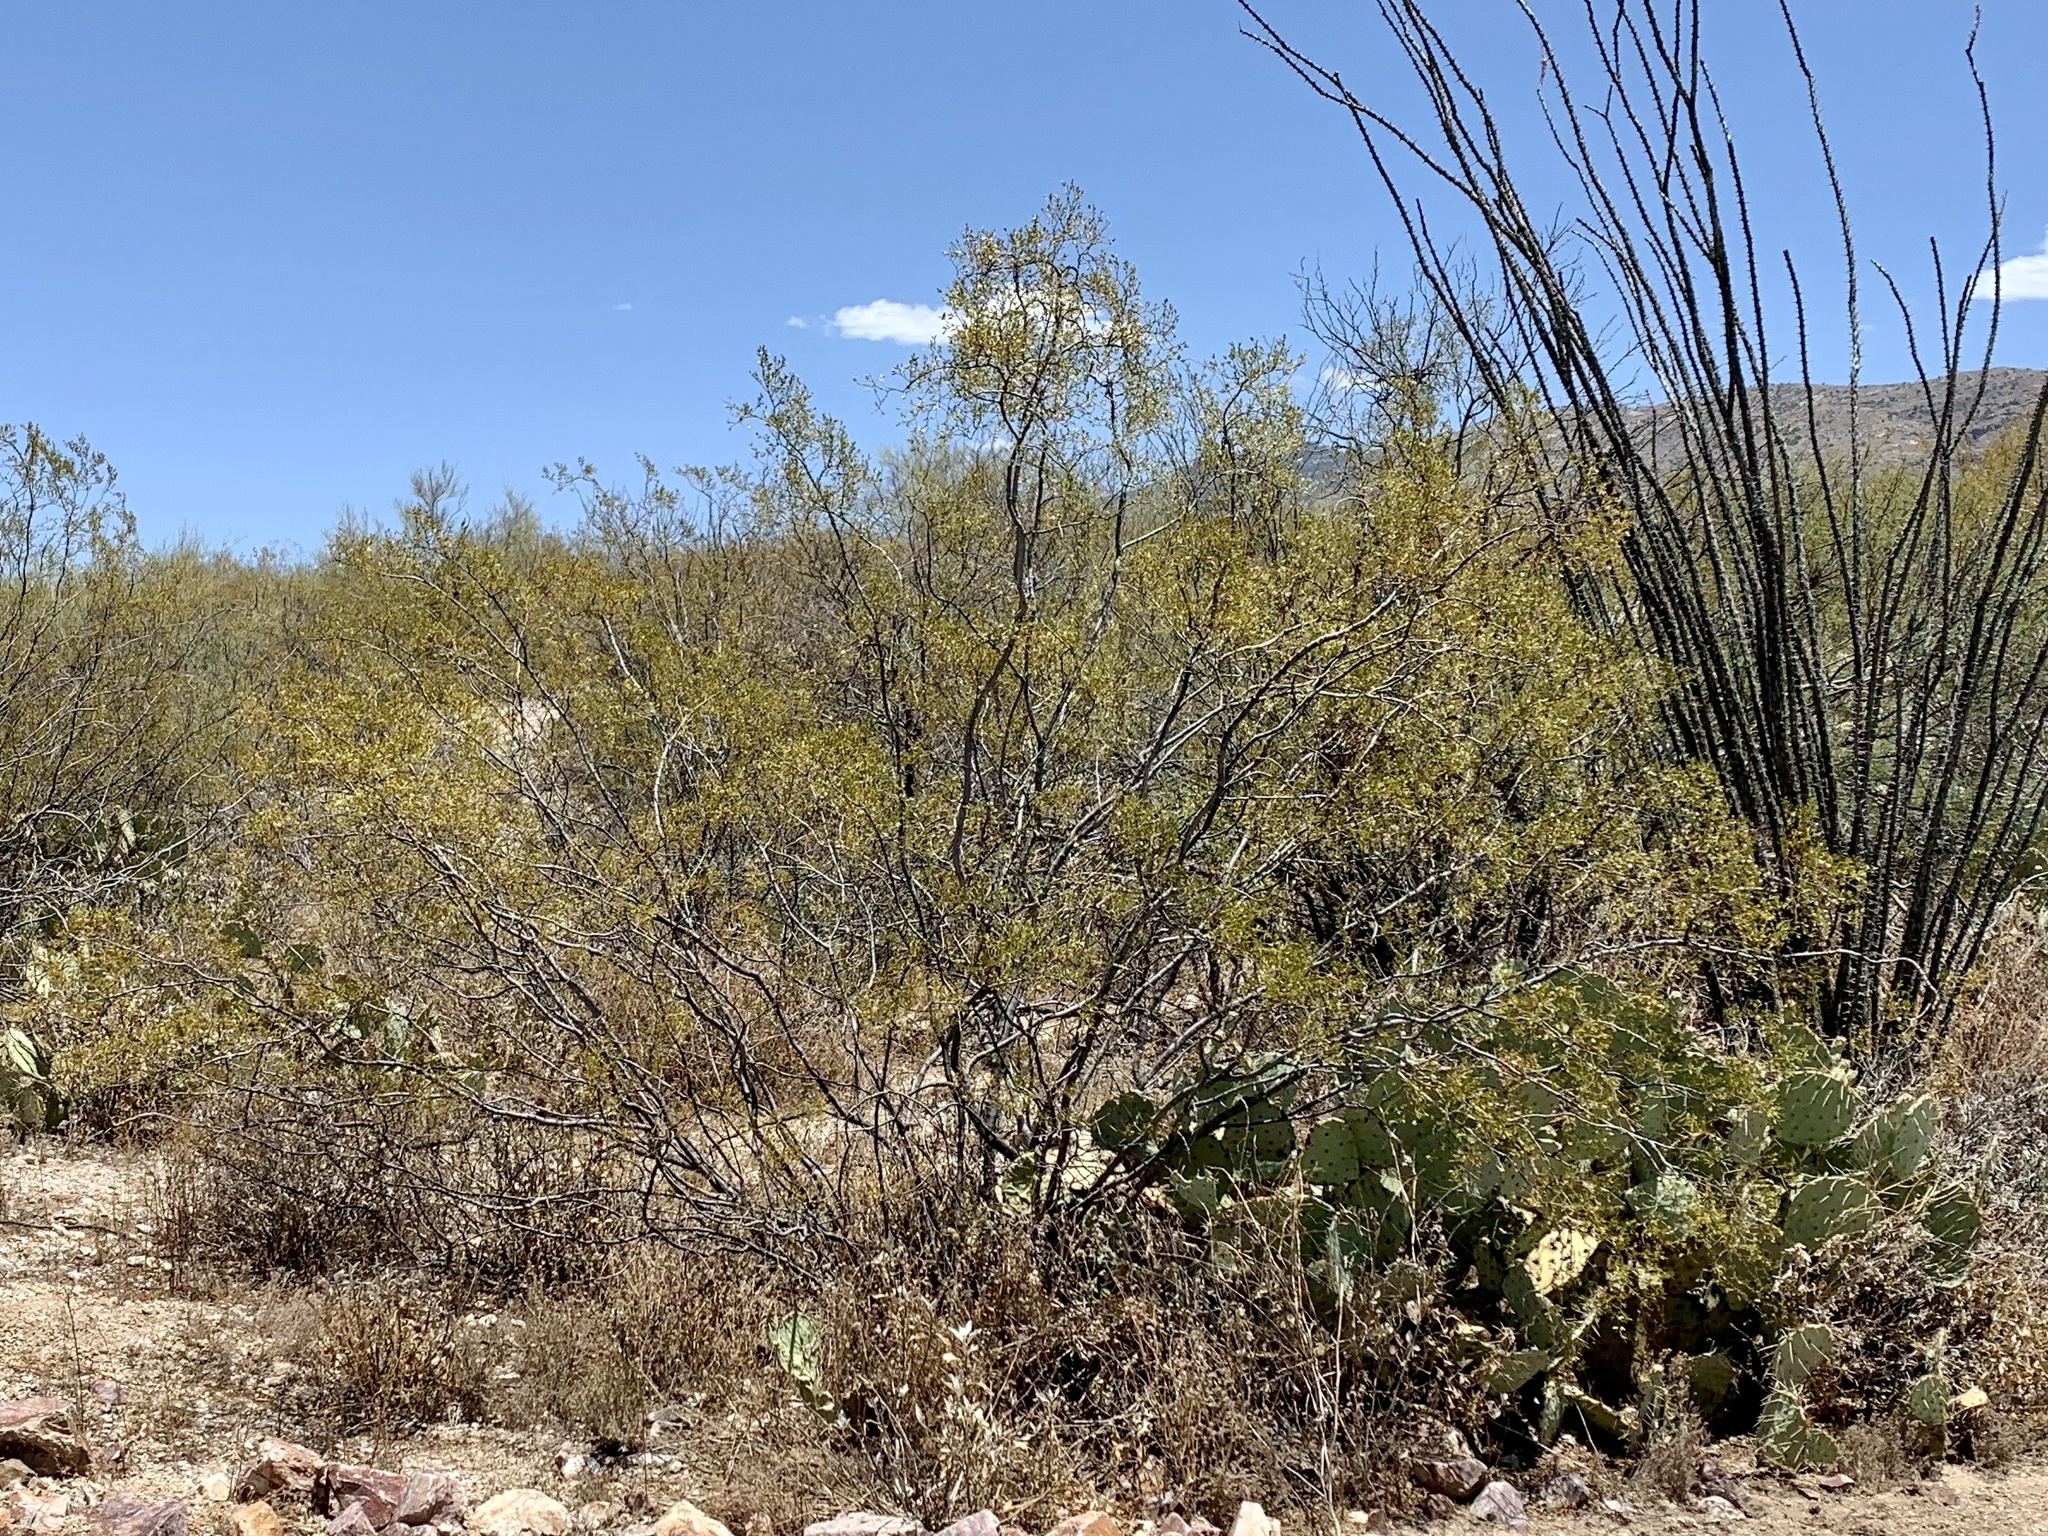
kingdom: Plantae
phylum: Tracheophyta
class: Magnoliopsida
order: Zygophyllales
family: Zygophyllaceae
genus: Larrea
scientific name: Larrea tridentata
